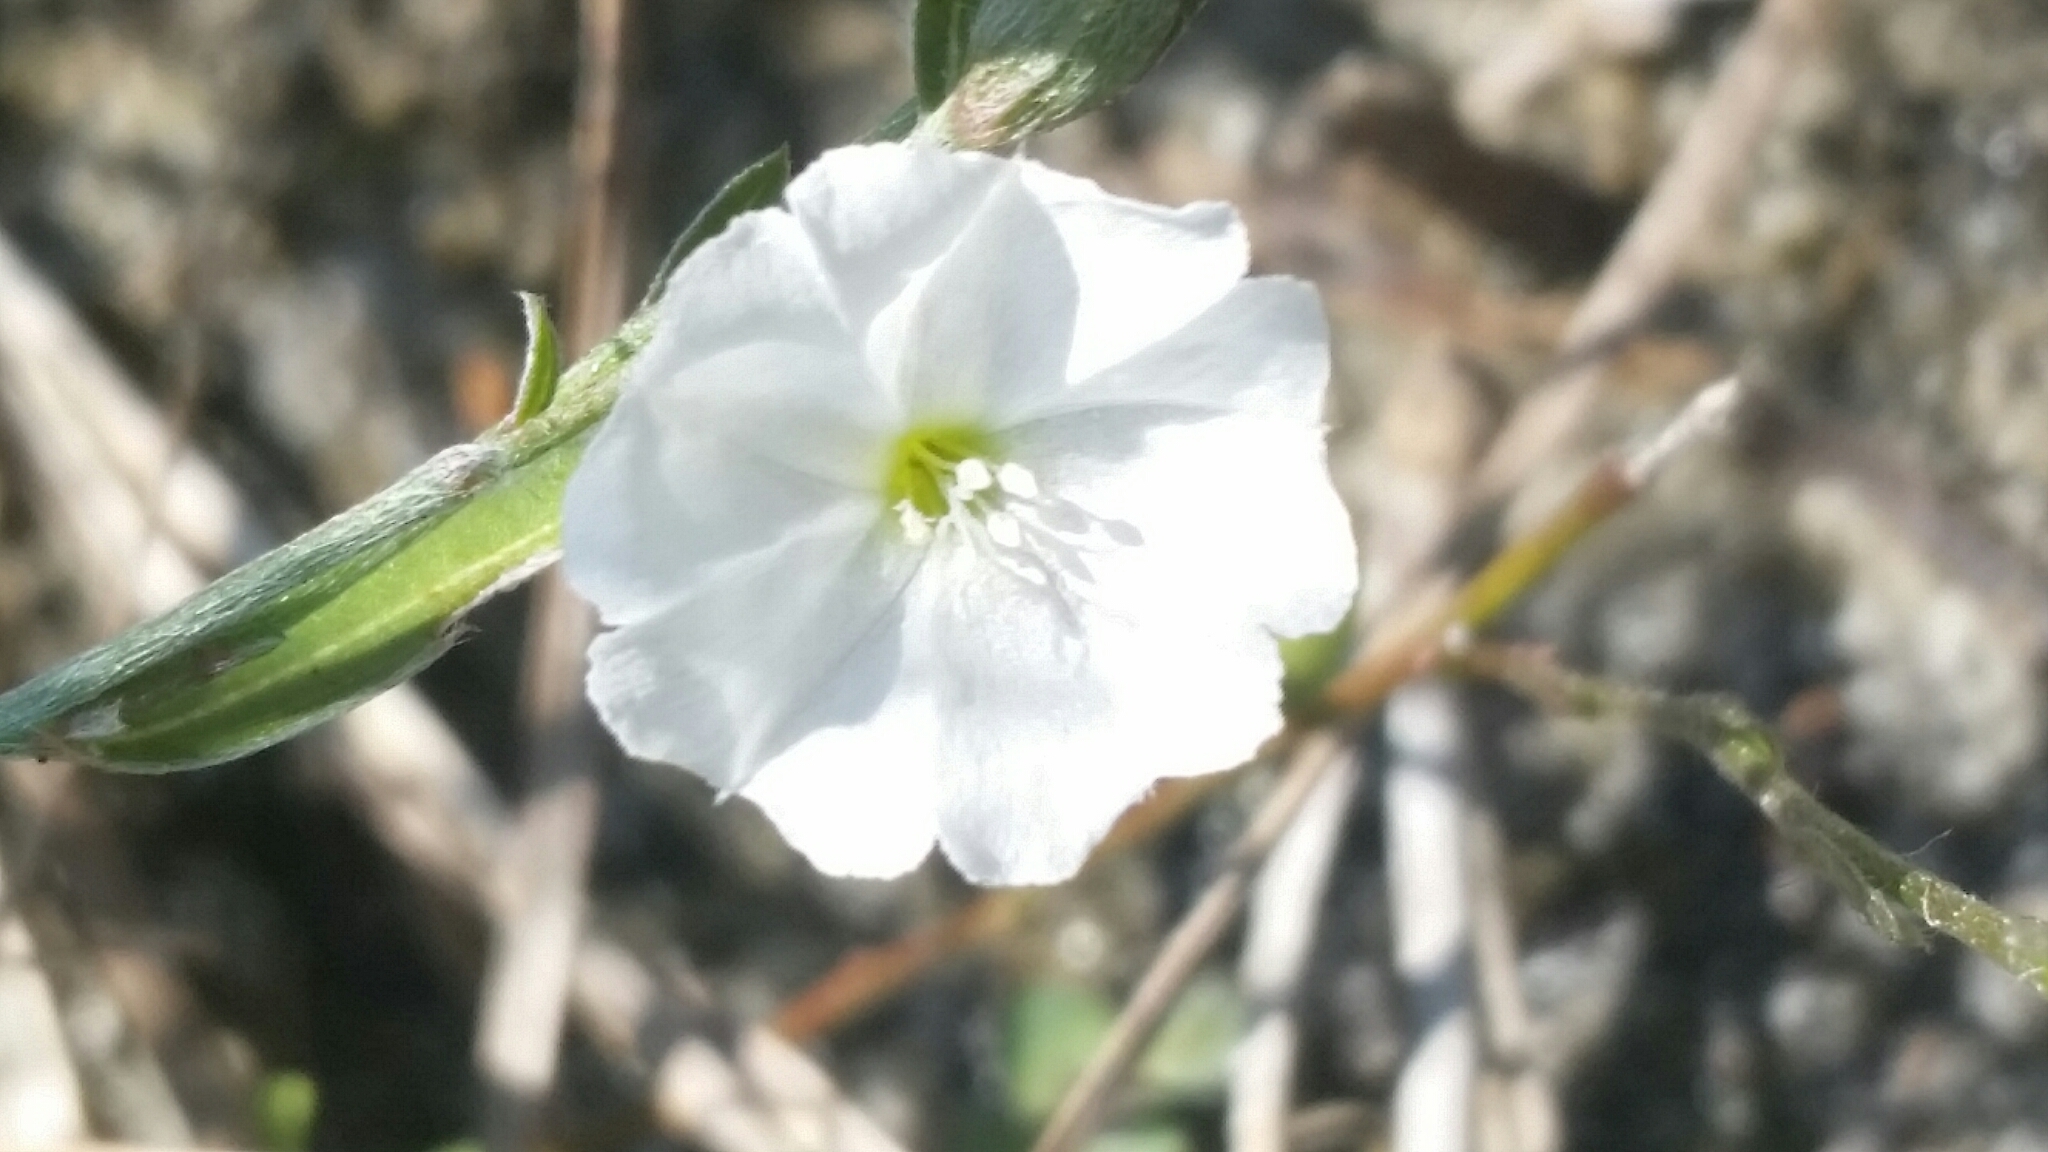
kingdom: Plantae
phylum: Tracheophyta
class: Magnoliopsida
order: Solanales
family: Convolvulaceae
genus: Evolvulus
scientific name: Evolvulus sericeus
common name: Blue dots
